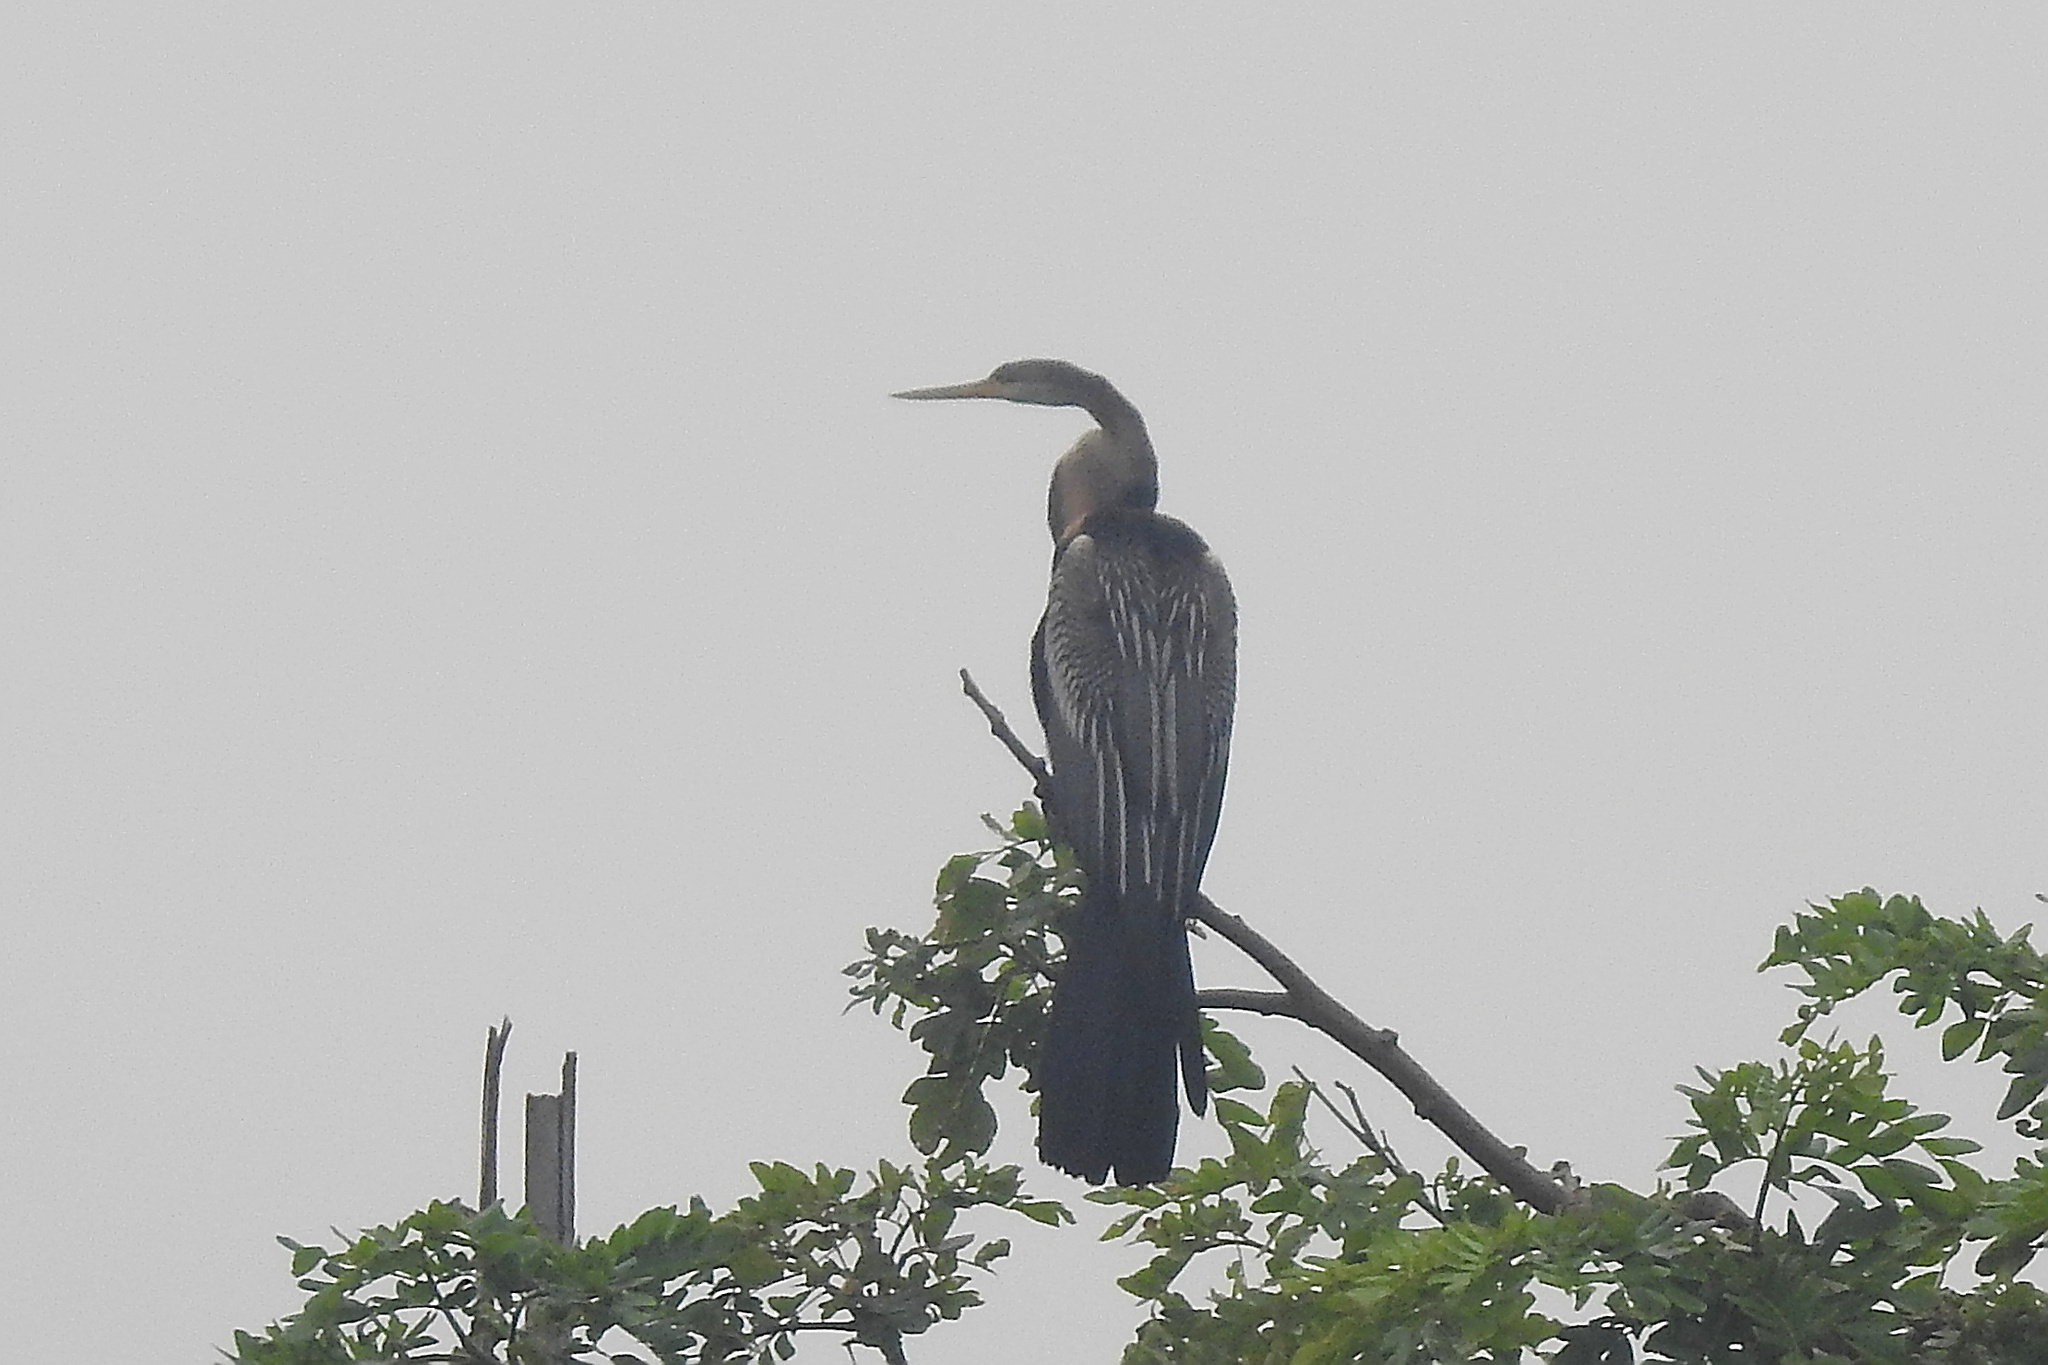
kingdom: Animalia
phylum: Chordata
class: Aves
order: Suliformes
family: Anhingidae
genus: Anhinga
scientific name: Anhinga melanogaster
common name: Oriental darter
